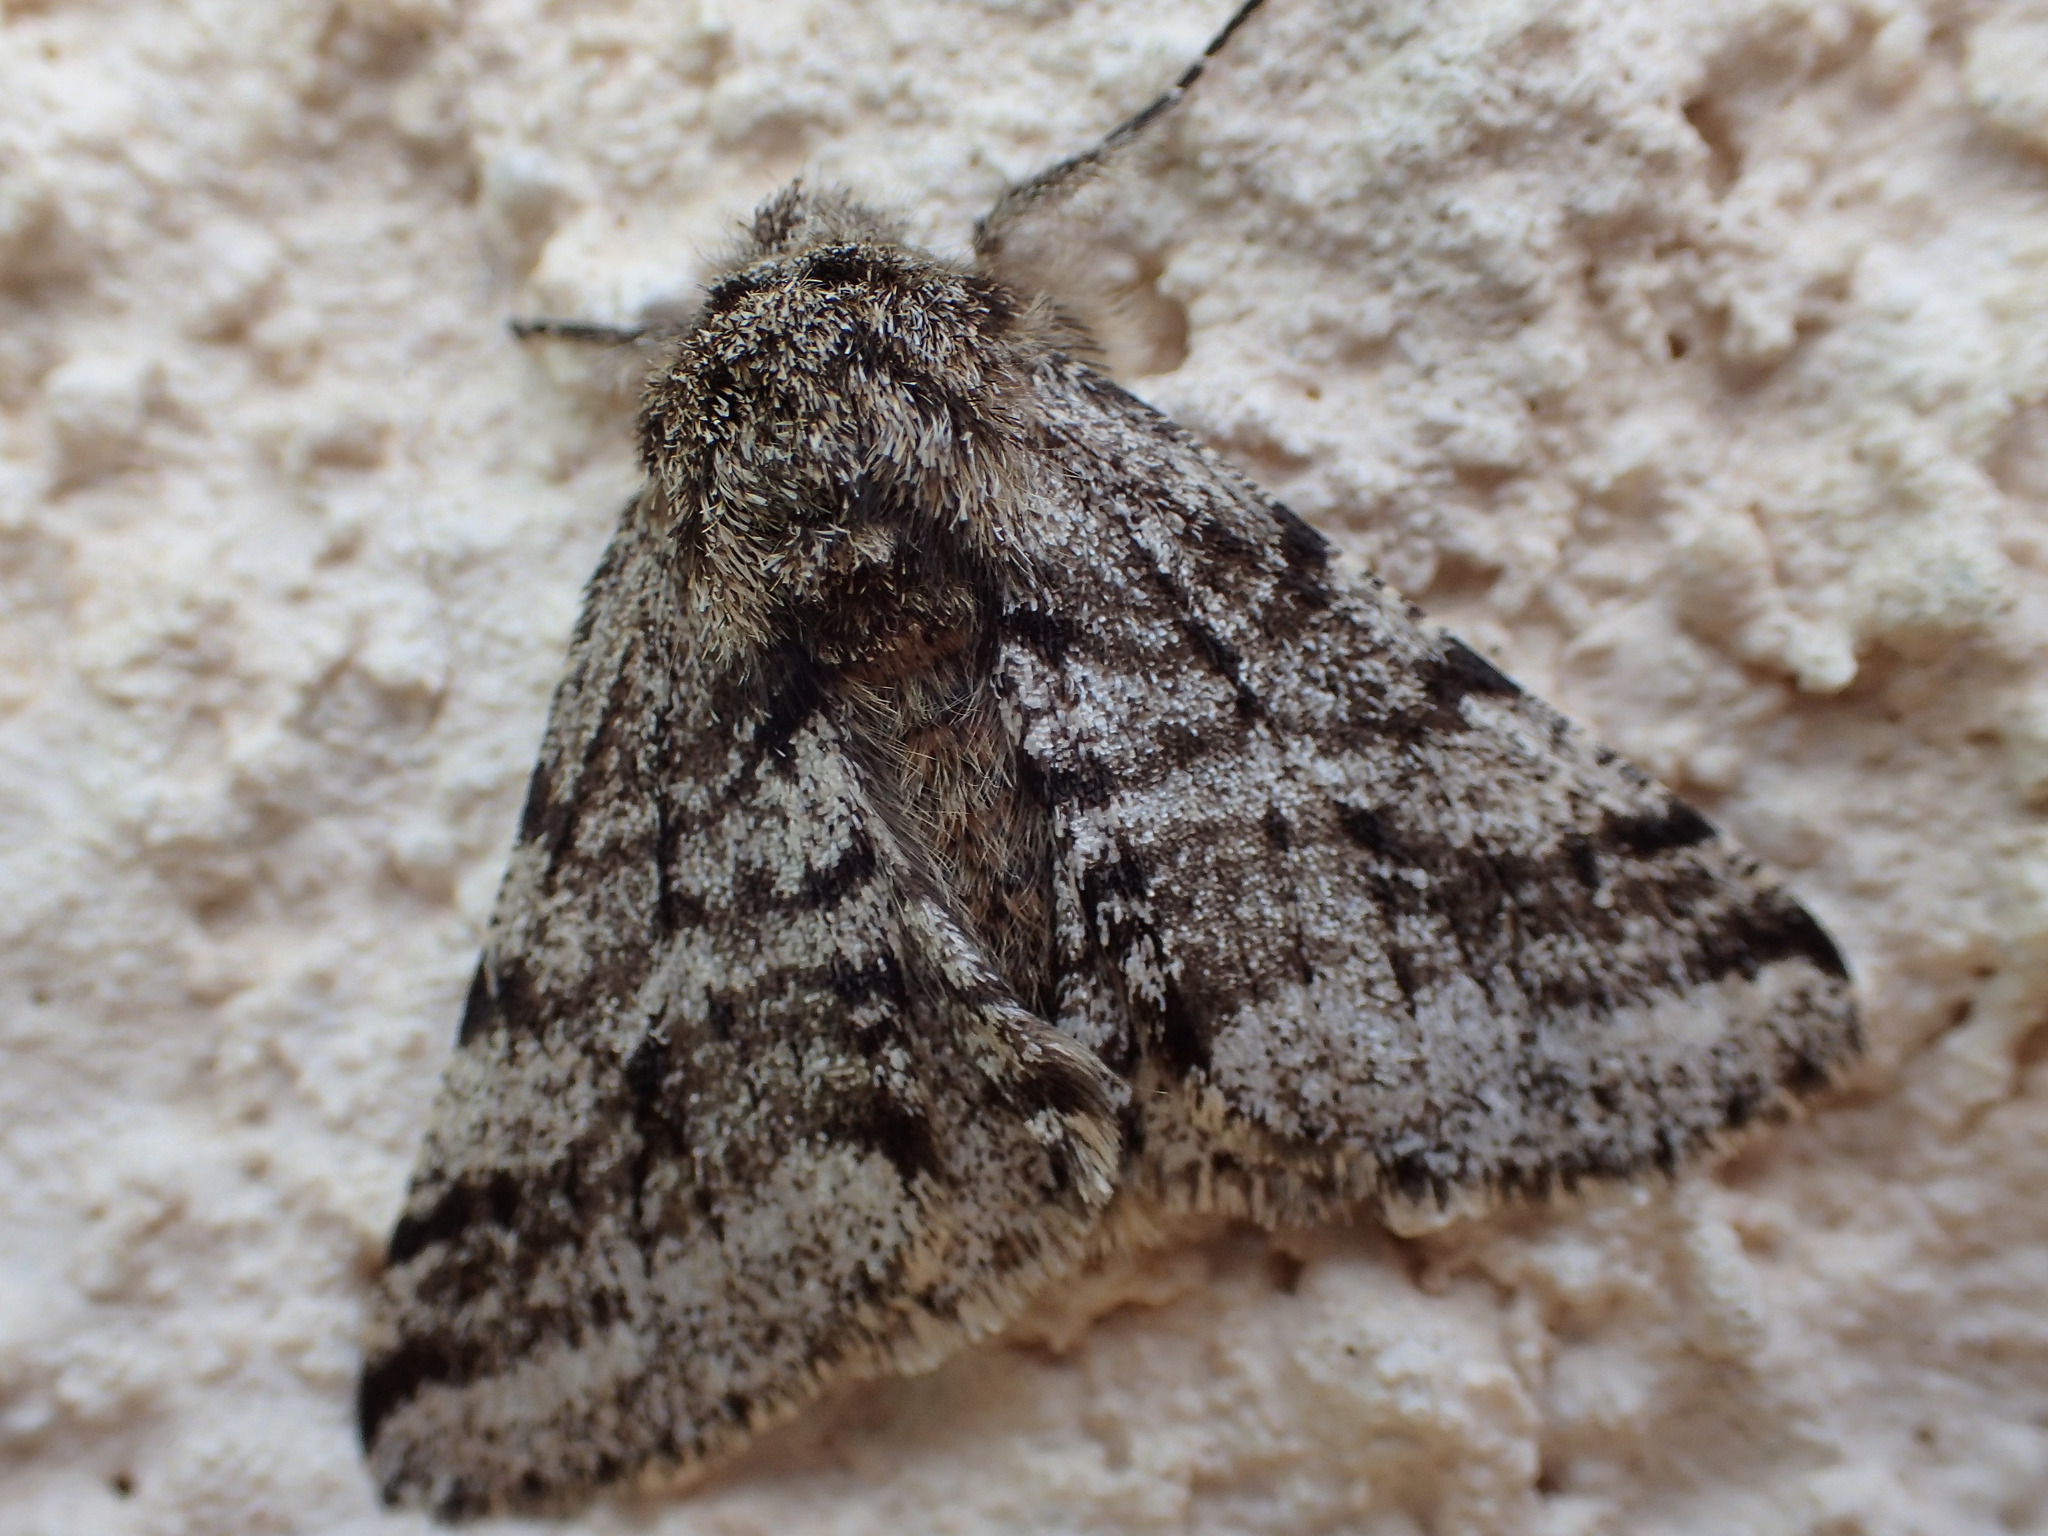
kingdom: Animalia
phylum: Arthropoda
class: Insecta
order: Lepidoptera
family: Geometridae
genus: Lycia
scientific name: Lycia hirtaria
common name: Brindled beauty
